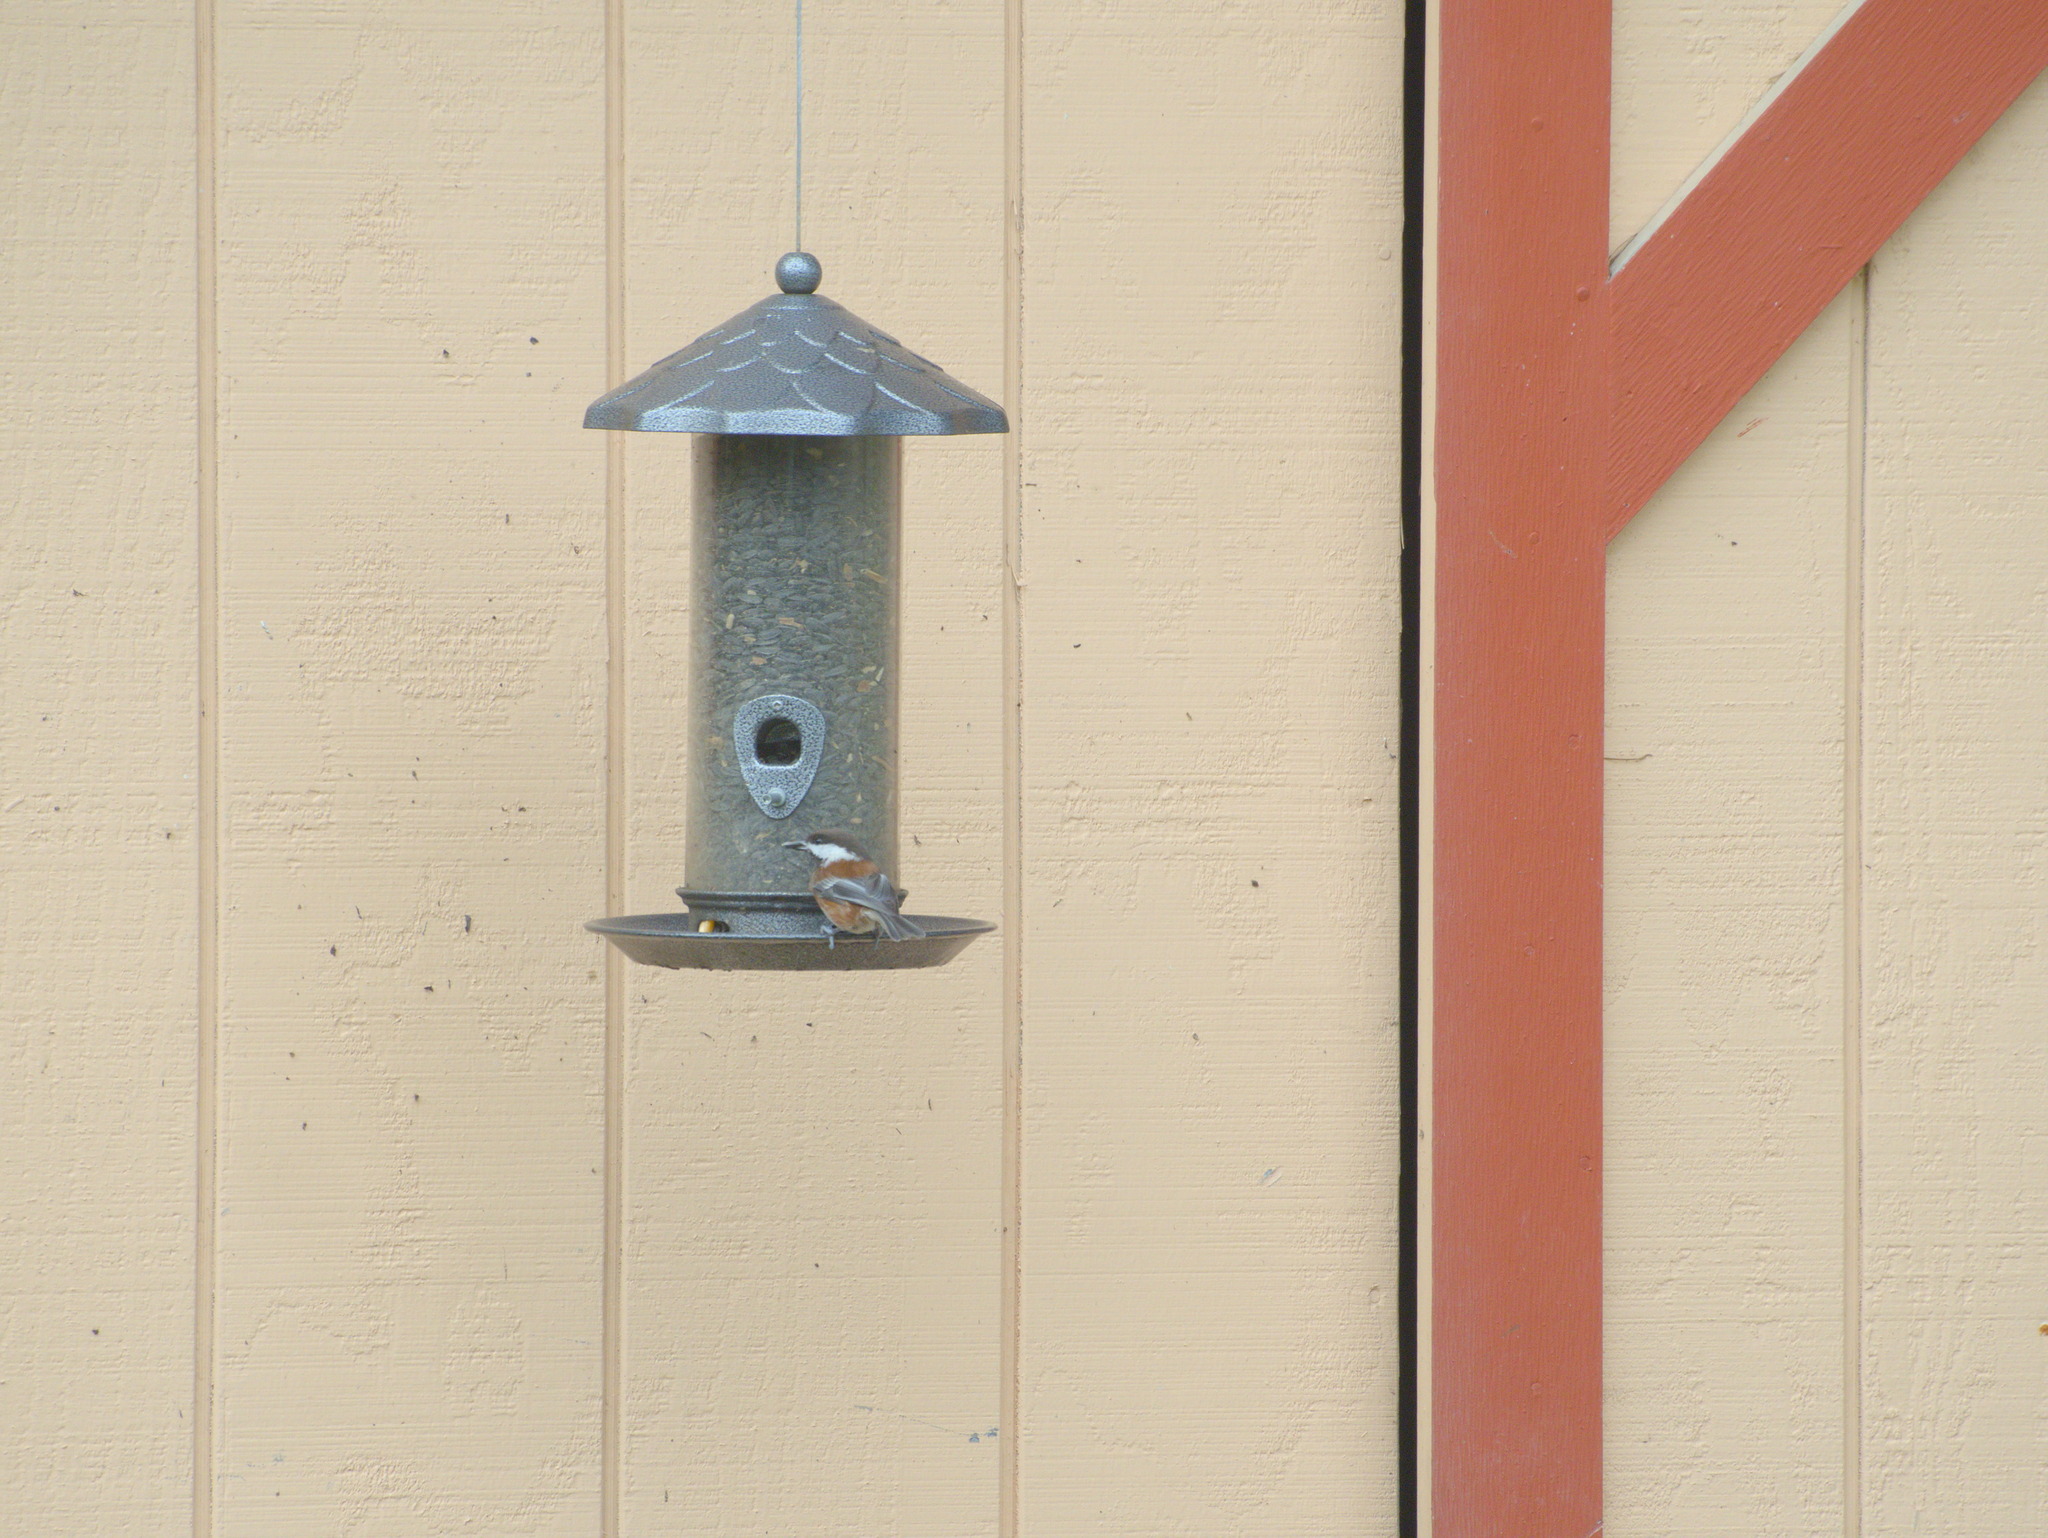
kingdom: Animalia
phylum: Chordata
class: Aves
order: Passeriformes
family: Paridae
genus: Poecile
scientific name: Poecile rufescens
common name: Chestnut-backed chickadee
